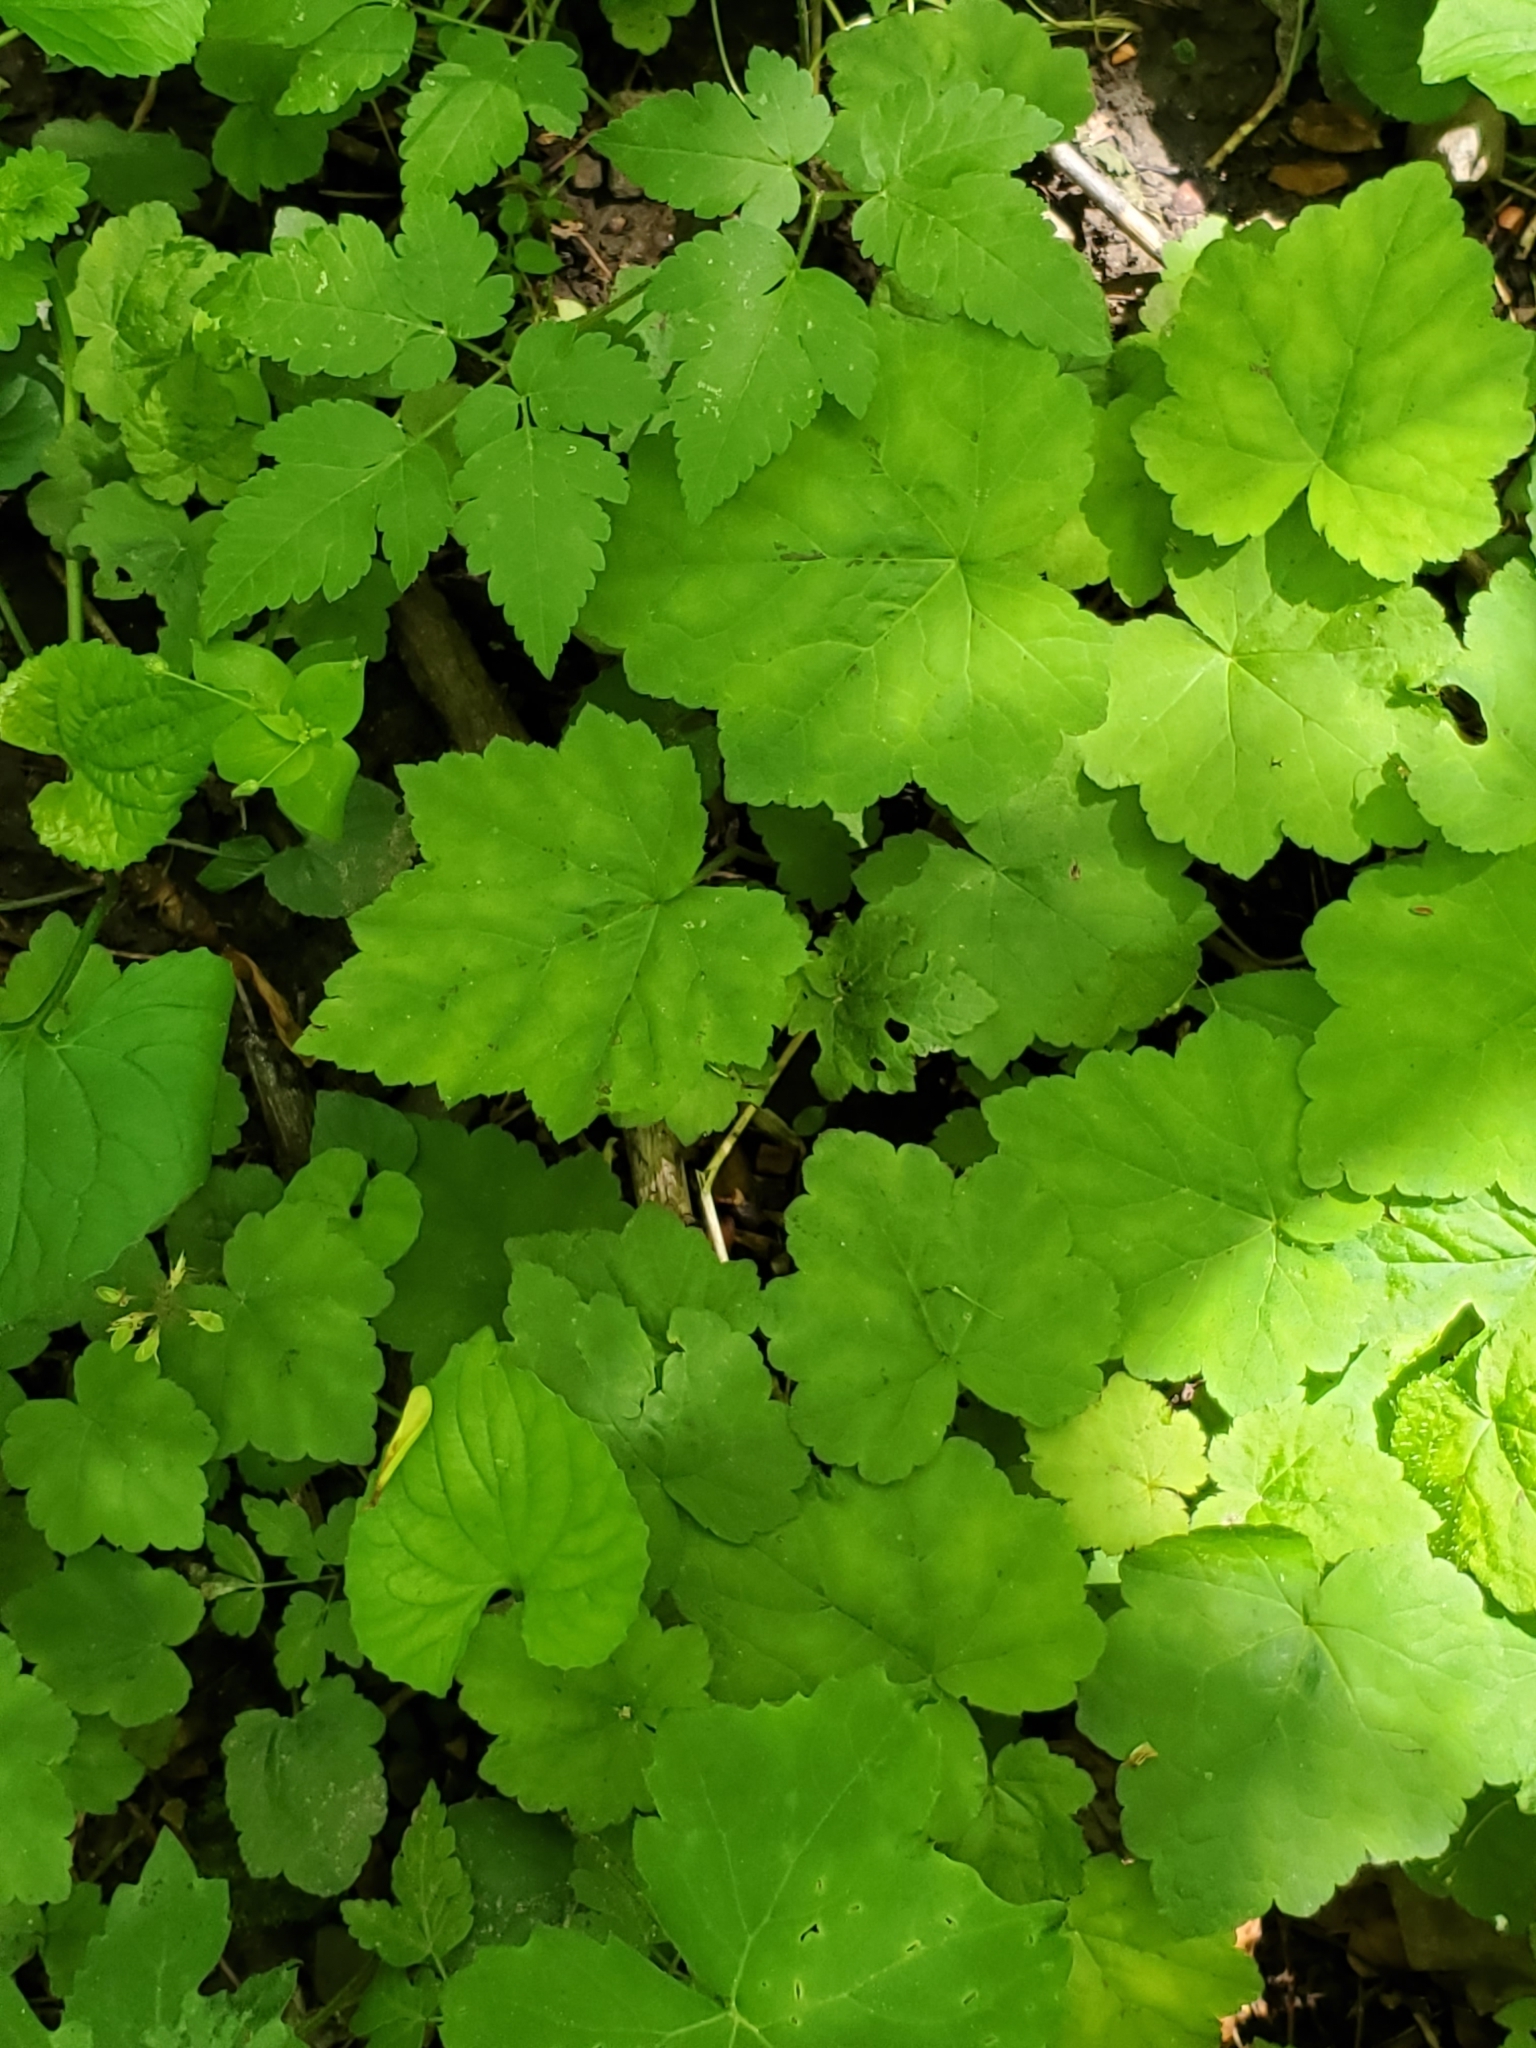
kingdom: Plantae
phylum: Tracheophyta
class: Magnoliopsida
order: Saxifragales
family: Saxifragaceae
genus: Tiarella
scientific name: Tiarella stolonifera
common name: Stoloniferous foamflower
